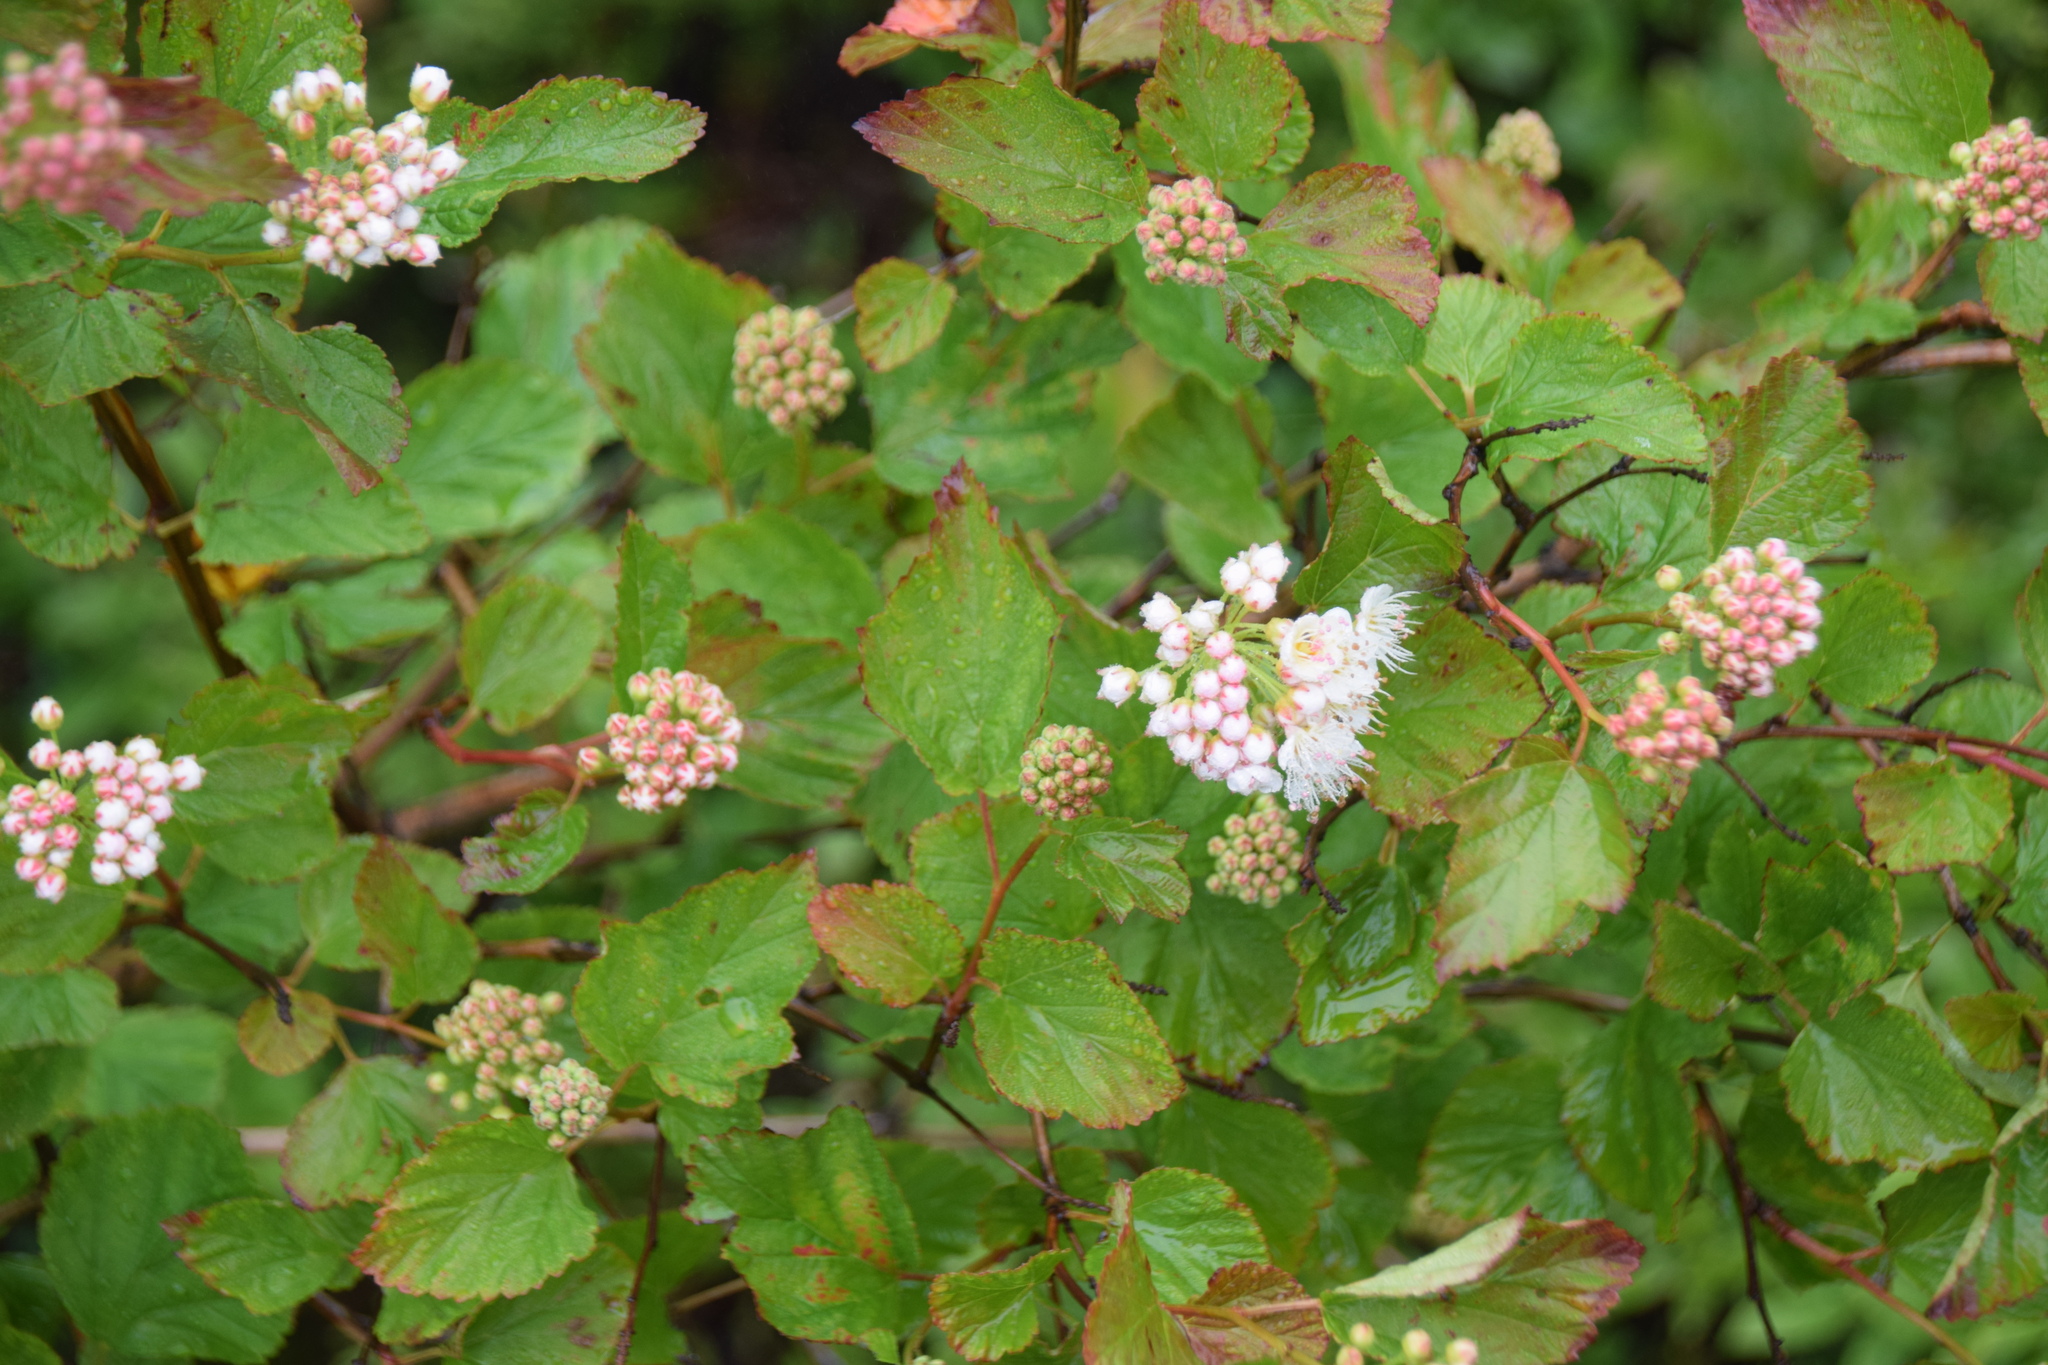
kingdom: Plantae
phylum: Tracheophyta
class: Magnoliopsida
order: Rosales
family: Rosaceae
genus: Physocarpus
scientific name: Physocarpus opulifolius
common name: Ninebark
